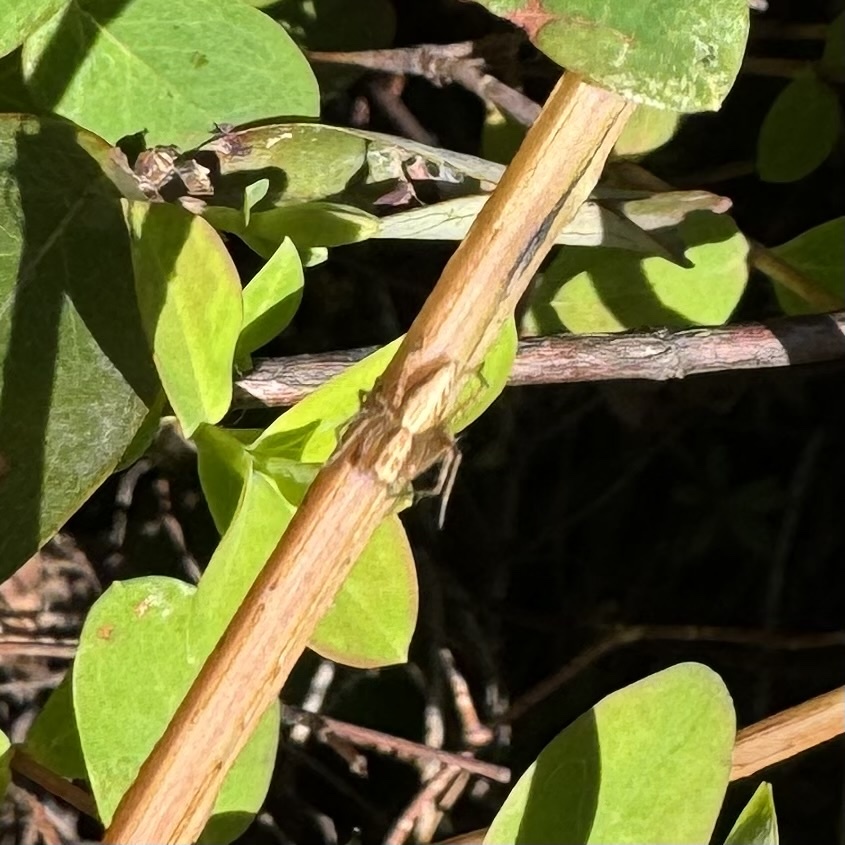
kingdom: Animalia
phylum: Arthropoda
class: Arachnida
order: Araneae
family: Oxyopidae
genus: Oxyopes
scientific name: Oxyopes sertatus
